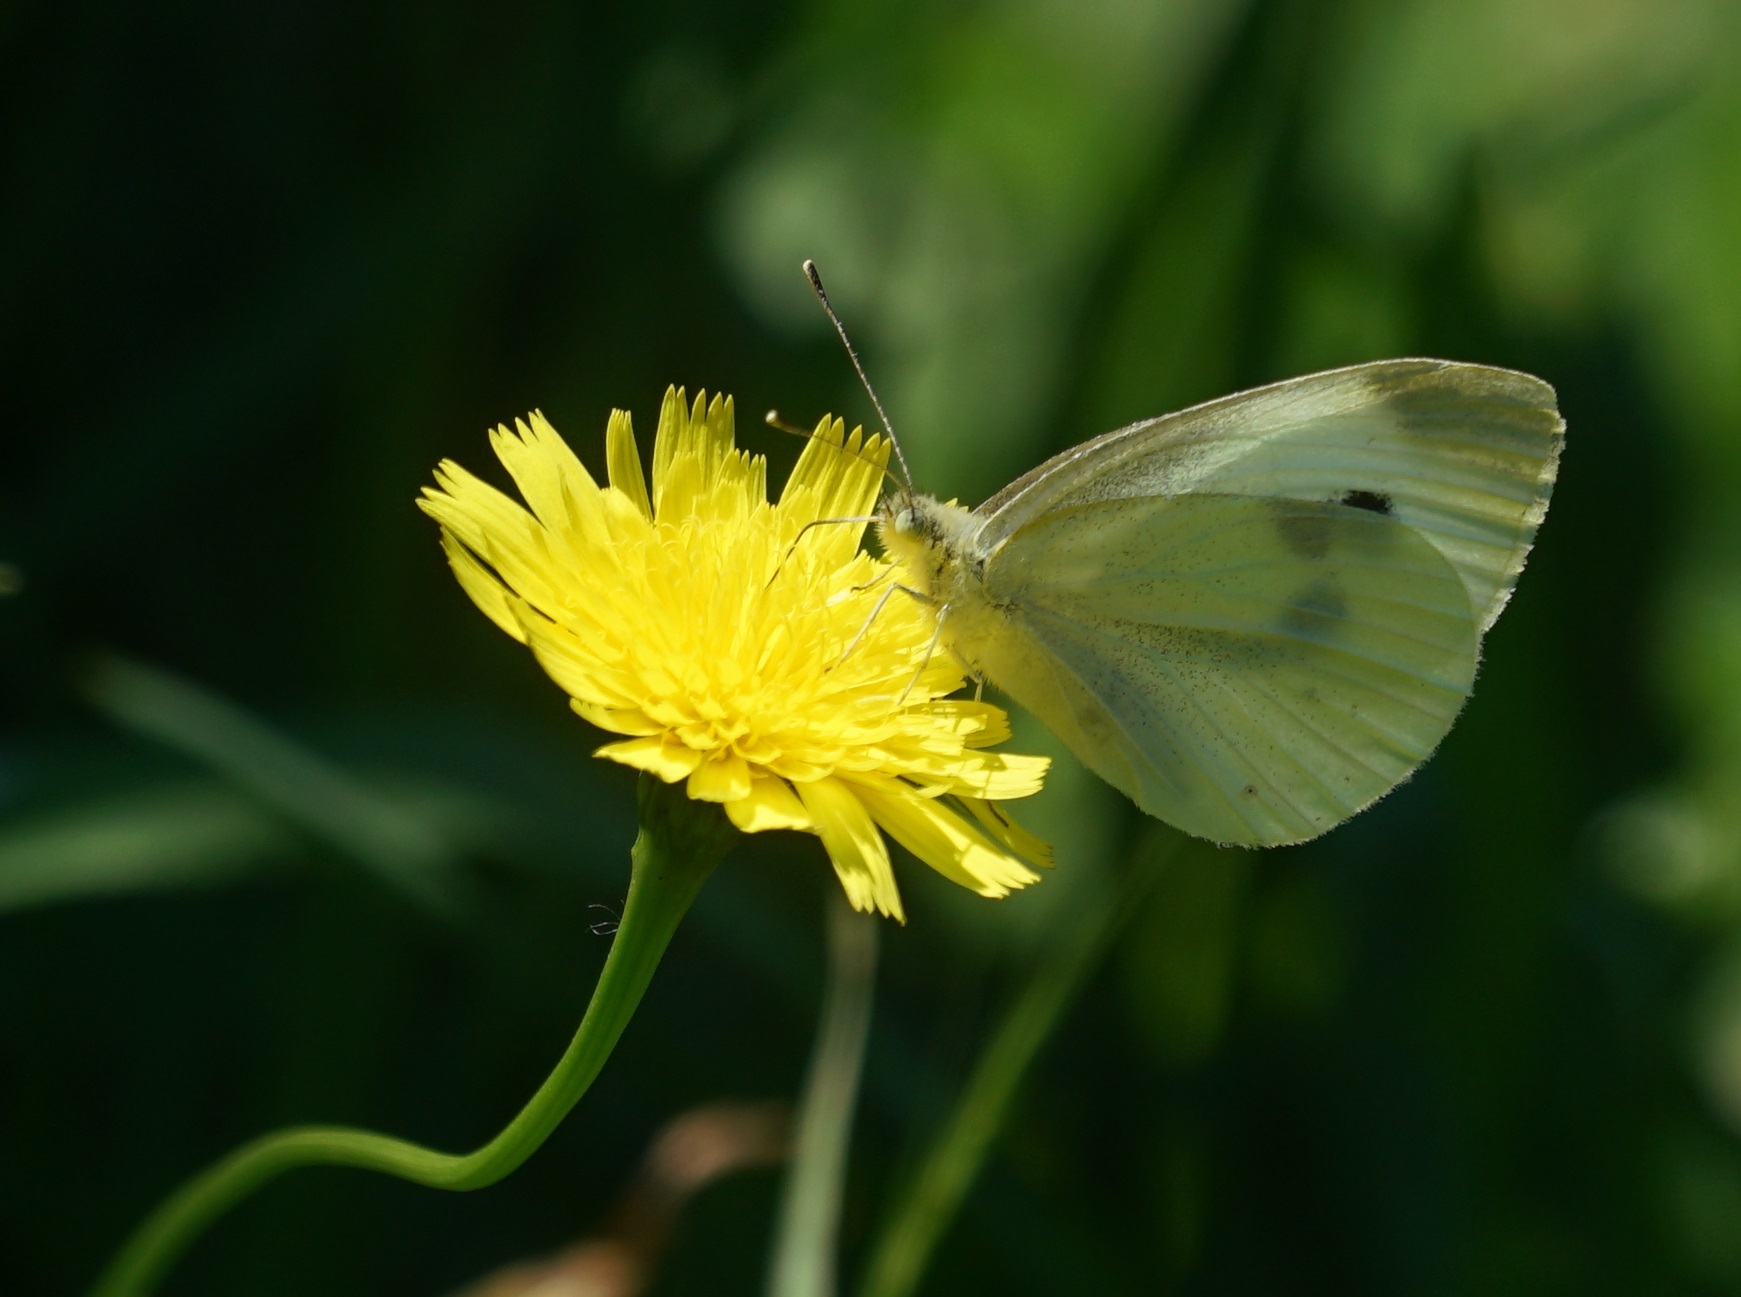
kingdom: Animalia
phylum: Arthropoda
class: Insecta
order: Lepidoptera
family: Pieridae
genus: Pieris
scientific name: Pieris rapae
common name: Small white
